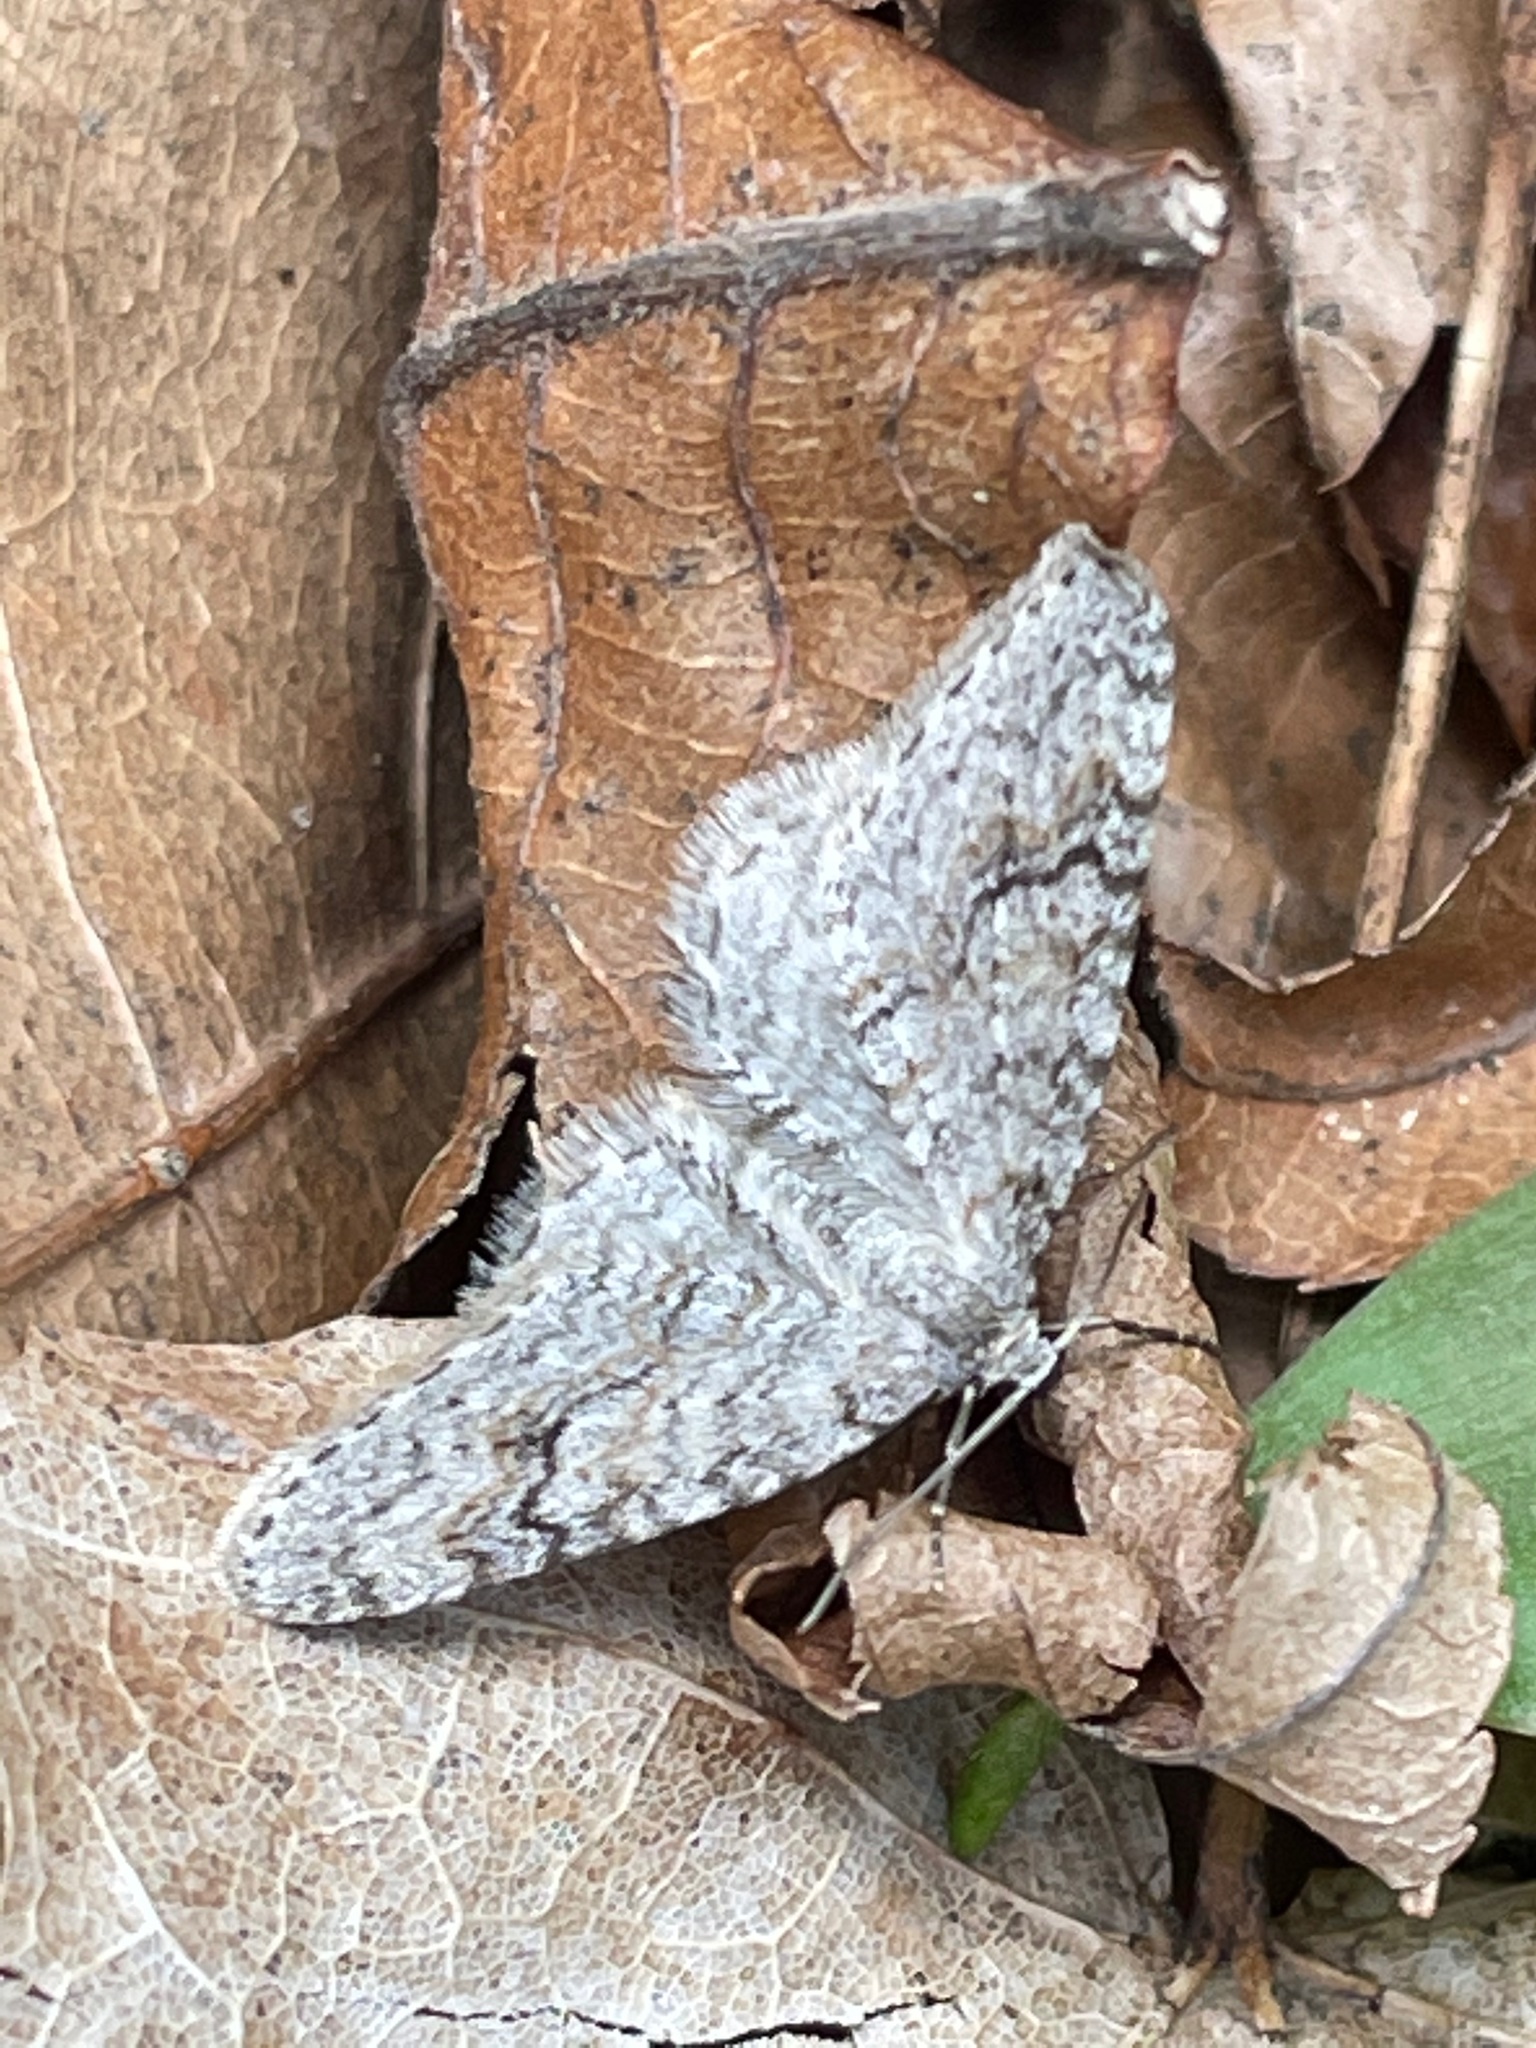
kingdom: Animalia
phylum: Arthropoda
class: Insecta
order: Lepidoptera
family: Geometridae
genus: Venusia
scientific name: Venusia comptaria
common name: Brown-shaded carpet
